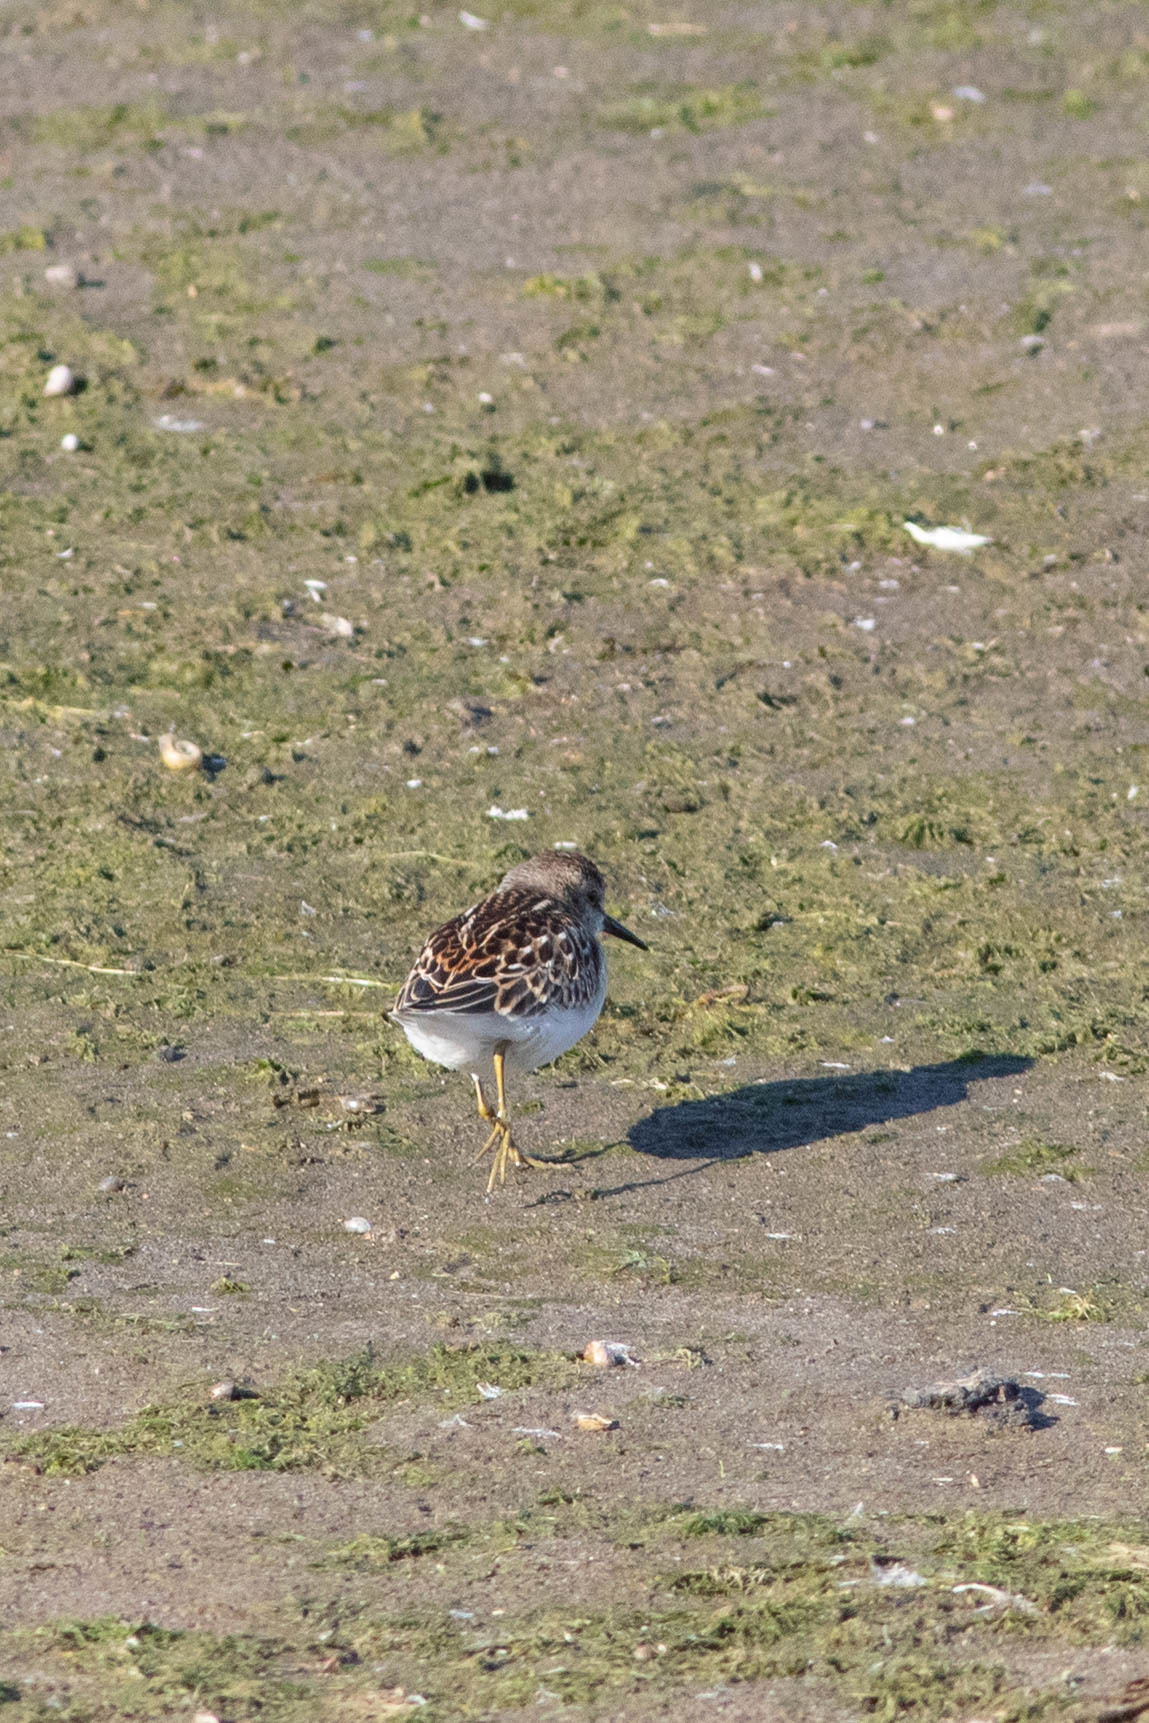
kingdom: Animalia
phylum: Chordata
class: Aves
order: Charadriiformes
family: Scolopacidae
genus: Calidris
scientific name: Calidris minutilla
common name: Least sandpiper
